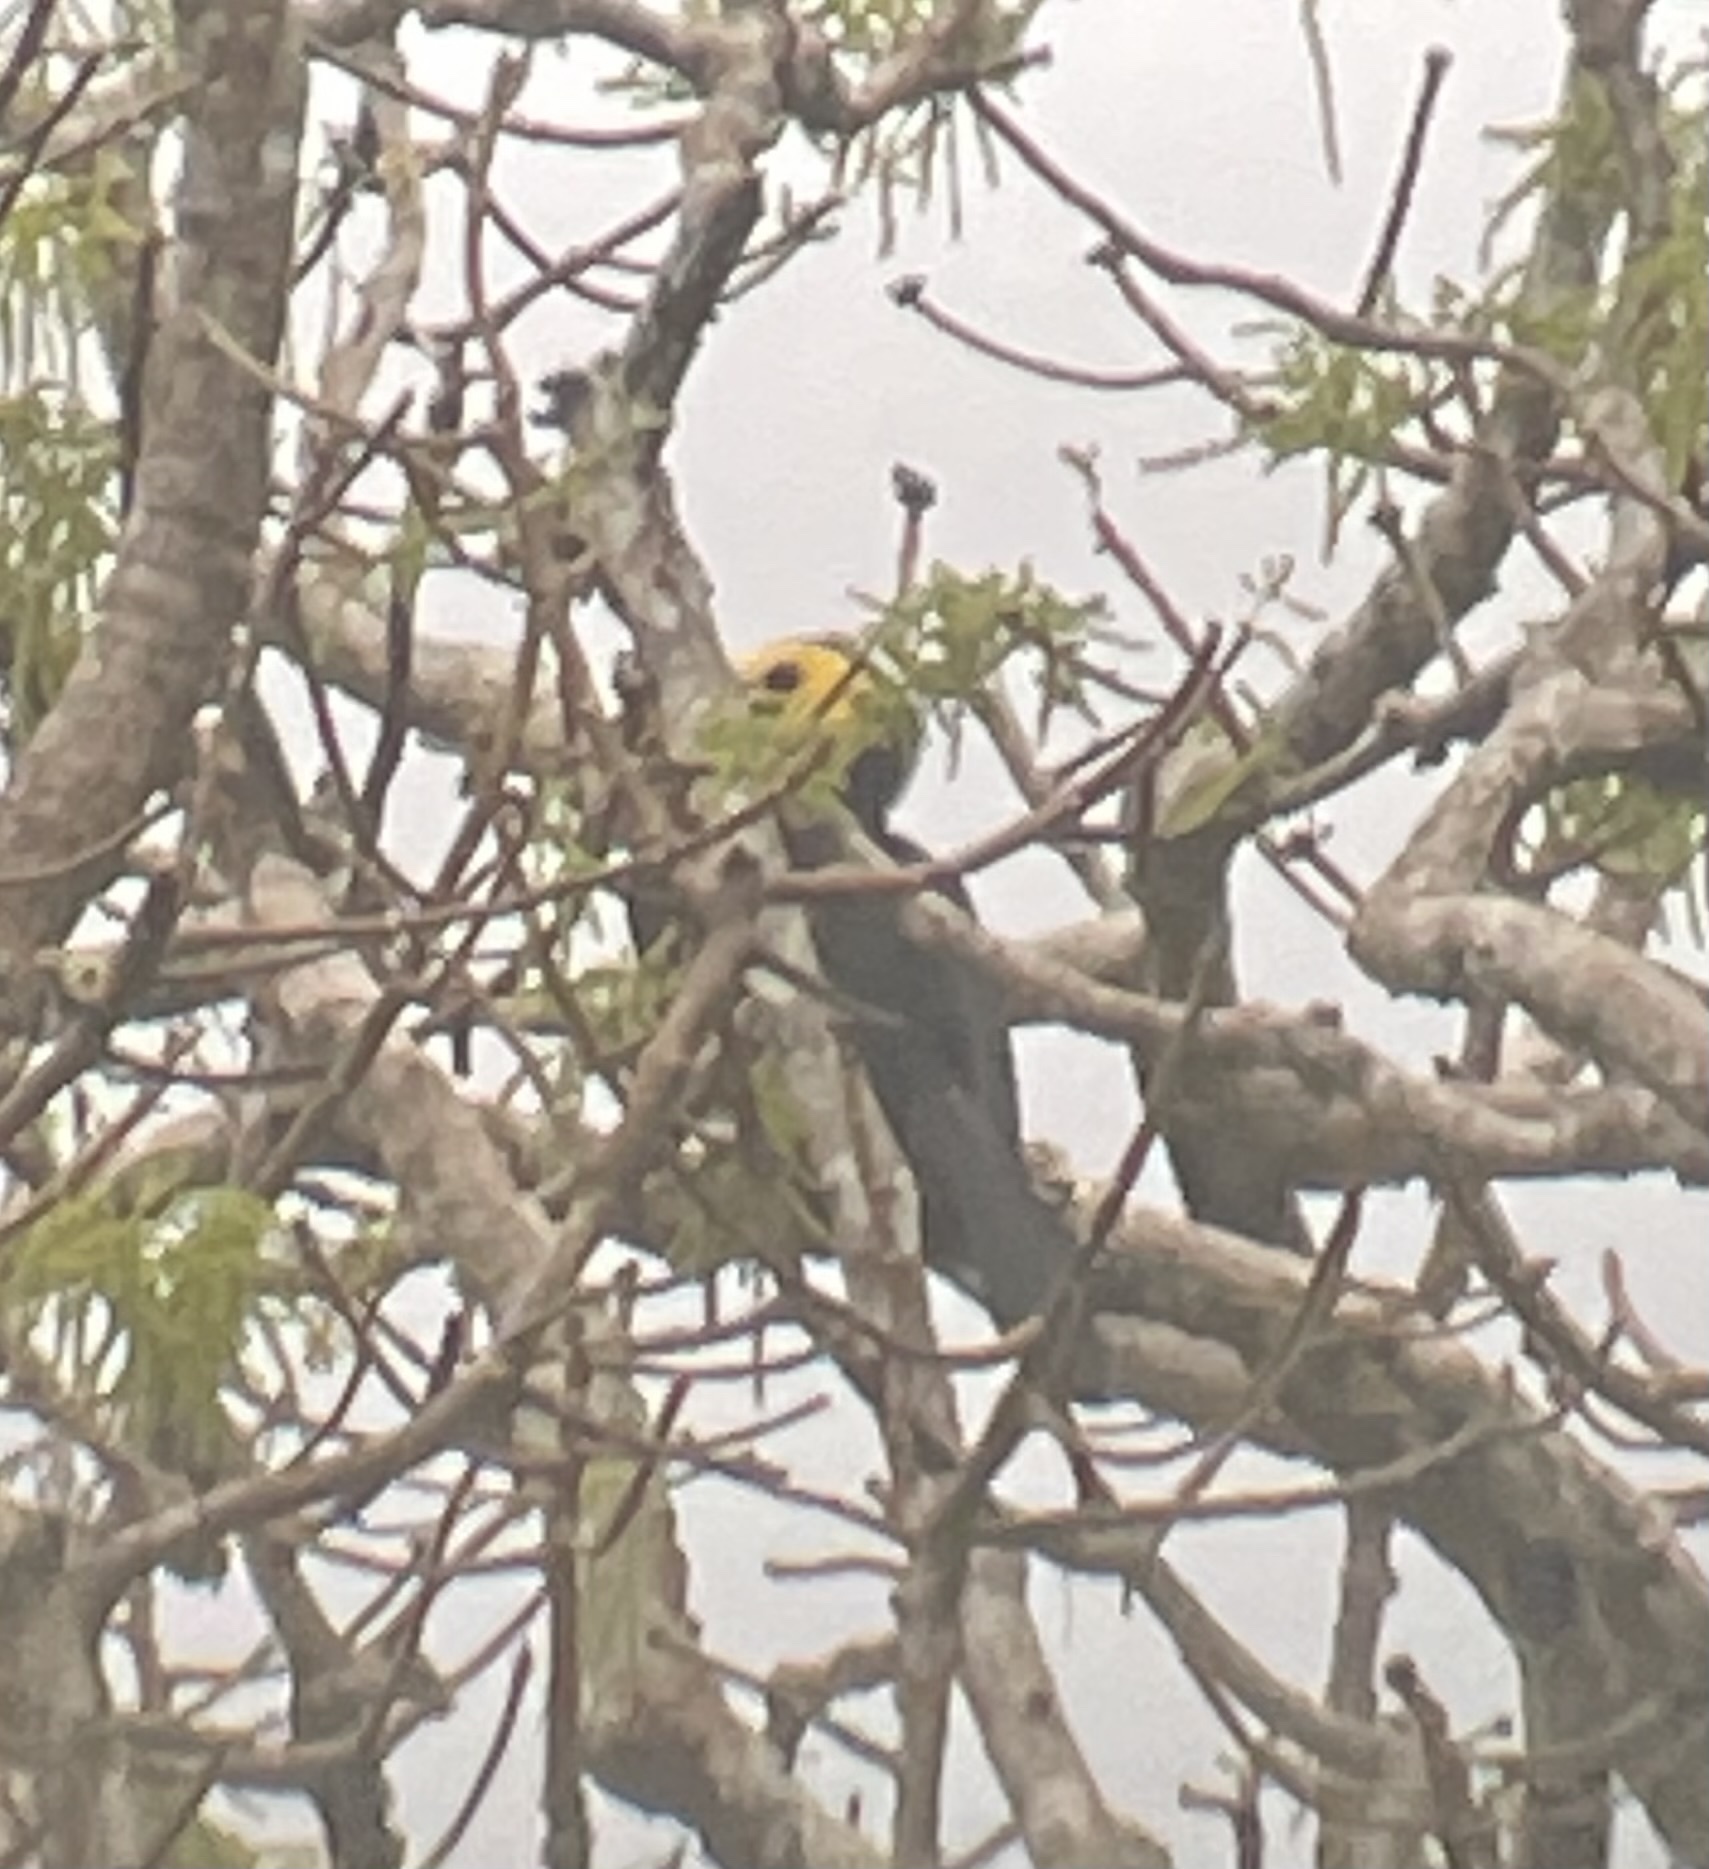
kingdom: Animalia
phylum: Chordata
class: Aves
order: Bucerotiformes
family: Bucerotidae
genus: Rhabdotorrhinus
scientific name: Rhabdotorrhinus exarhatus
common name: Sulawesi hornbill
